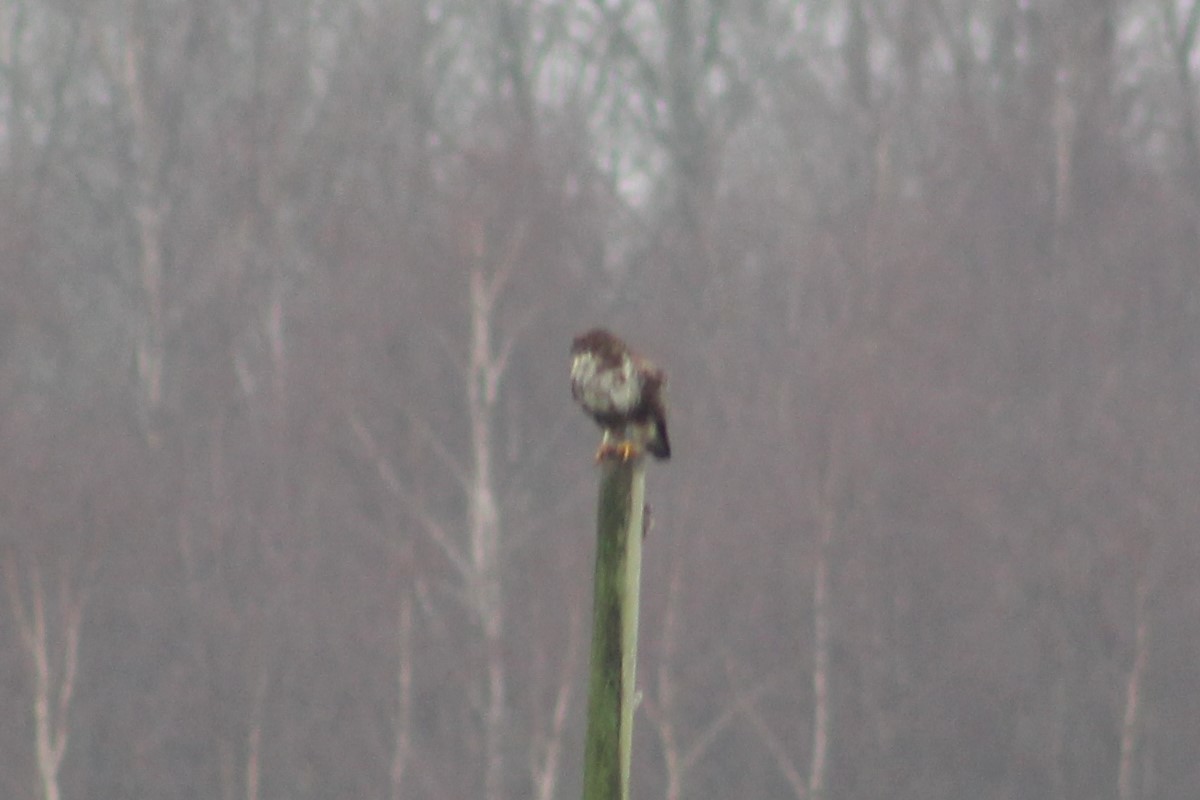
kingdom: Animalia
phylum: Chordata
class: Aves
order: Accipitriformes
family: Accipitridae
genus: Buteo
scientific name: Buteo buteo
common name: Common buzzard
